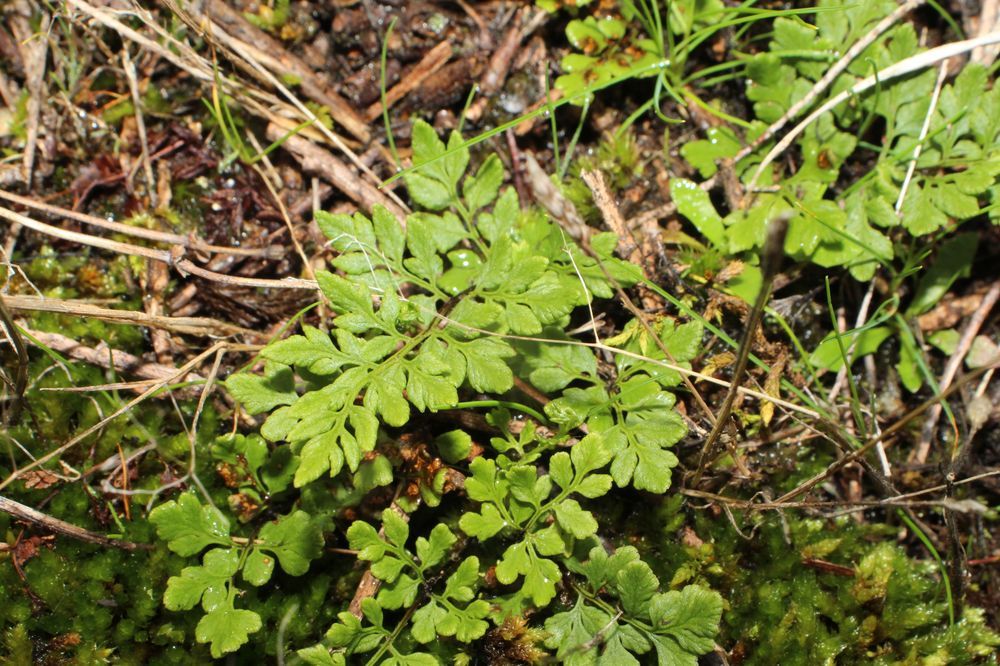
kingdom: Plantae
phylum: Tracheophyta
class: Polypodiopsida
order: Polypodiales
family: Pteridaceae
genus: Cheilanthes
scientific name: Cheilanthes austrotenuifolia
